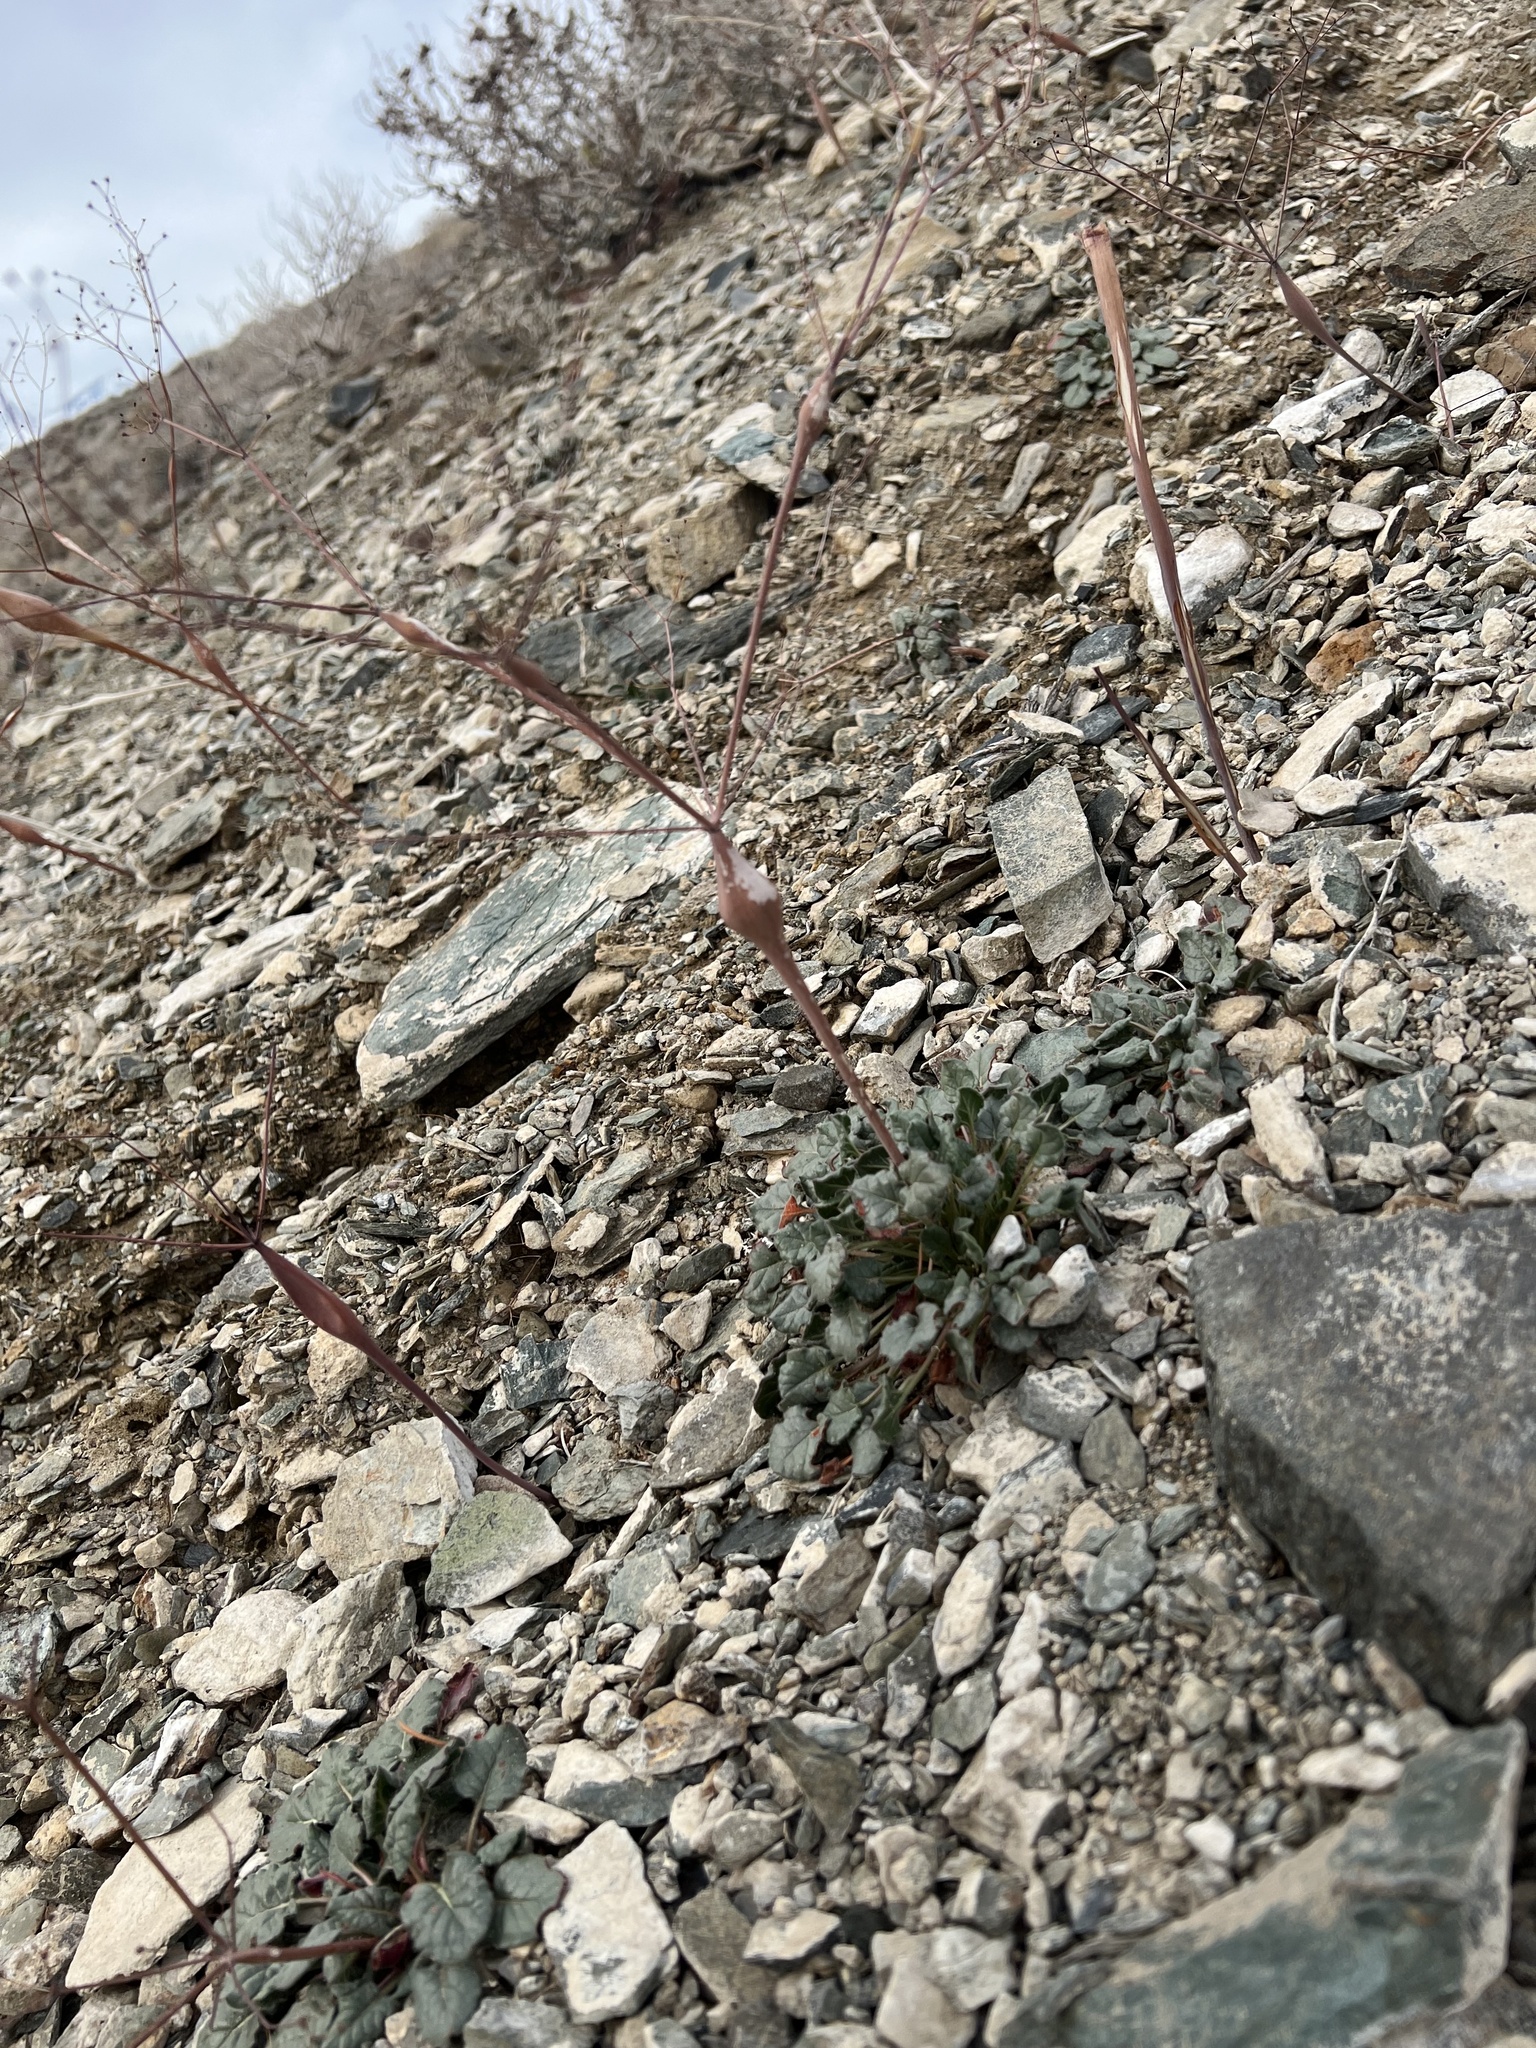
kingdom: Plantae
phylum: Tracheophyta
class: Magnoliopsida
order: Caryophyllales
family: Polygonaceae
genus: Eriogonum
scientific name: Eriogonum inflatum
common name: Desert trumpet
